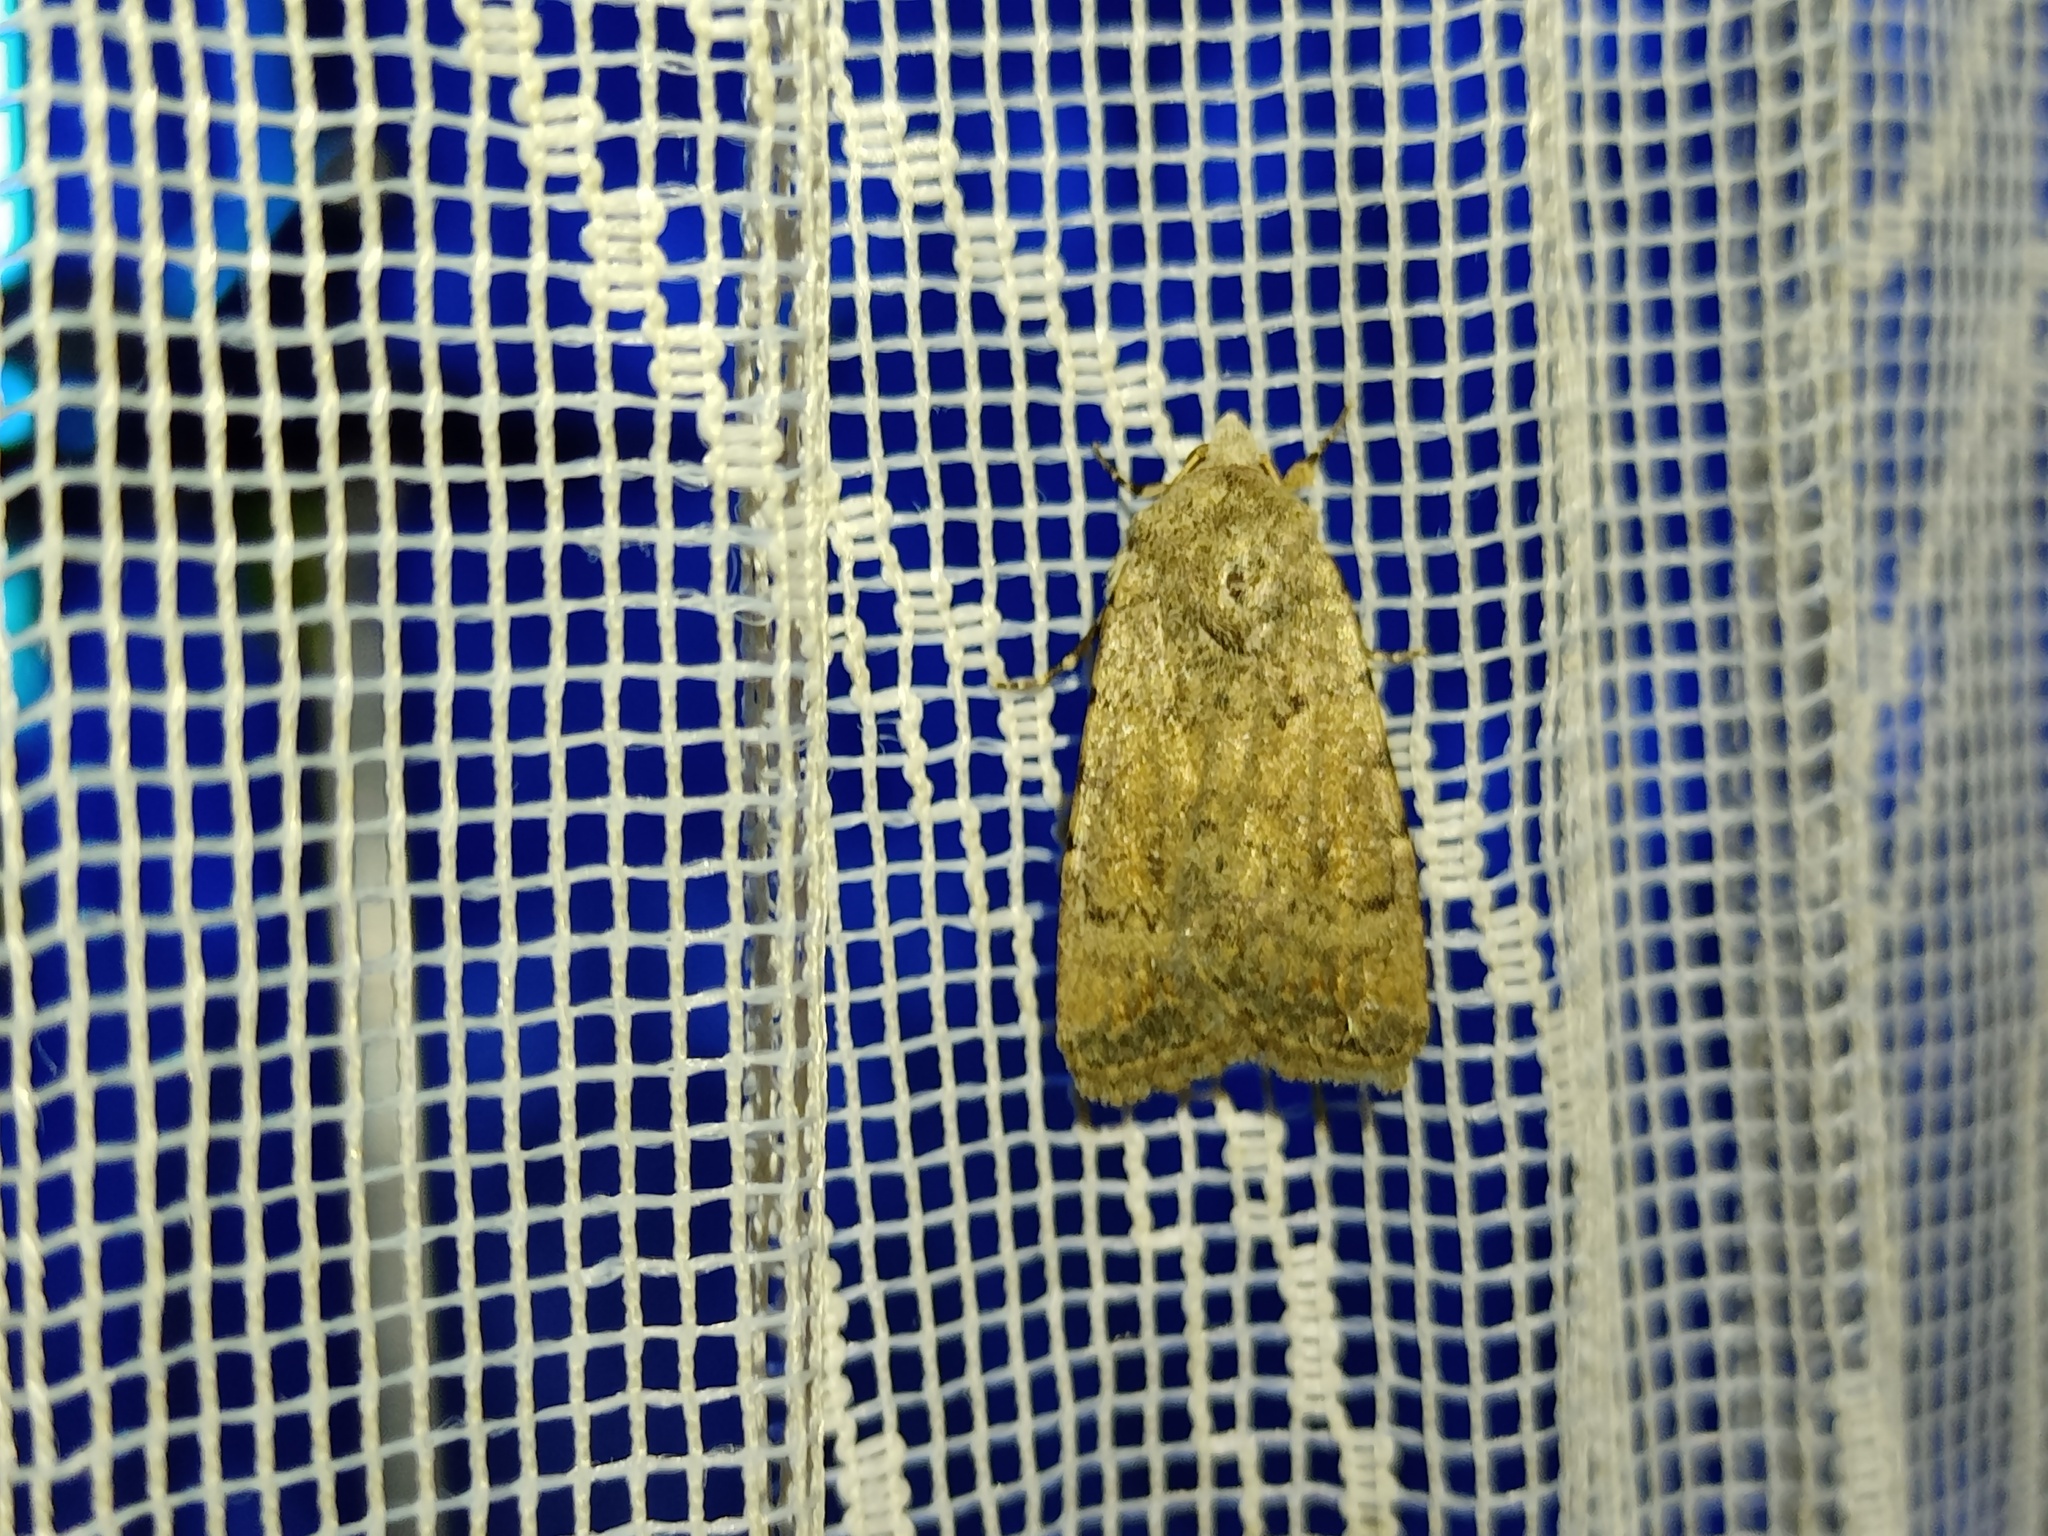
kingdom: Animalia
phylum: Arthropoda
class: Insecta
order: Lepidoptera
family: Noctuidae
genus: Caradrina
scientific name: Caradrina clavipalpis
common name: Pale mottled willow
